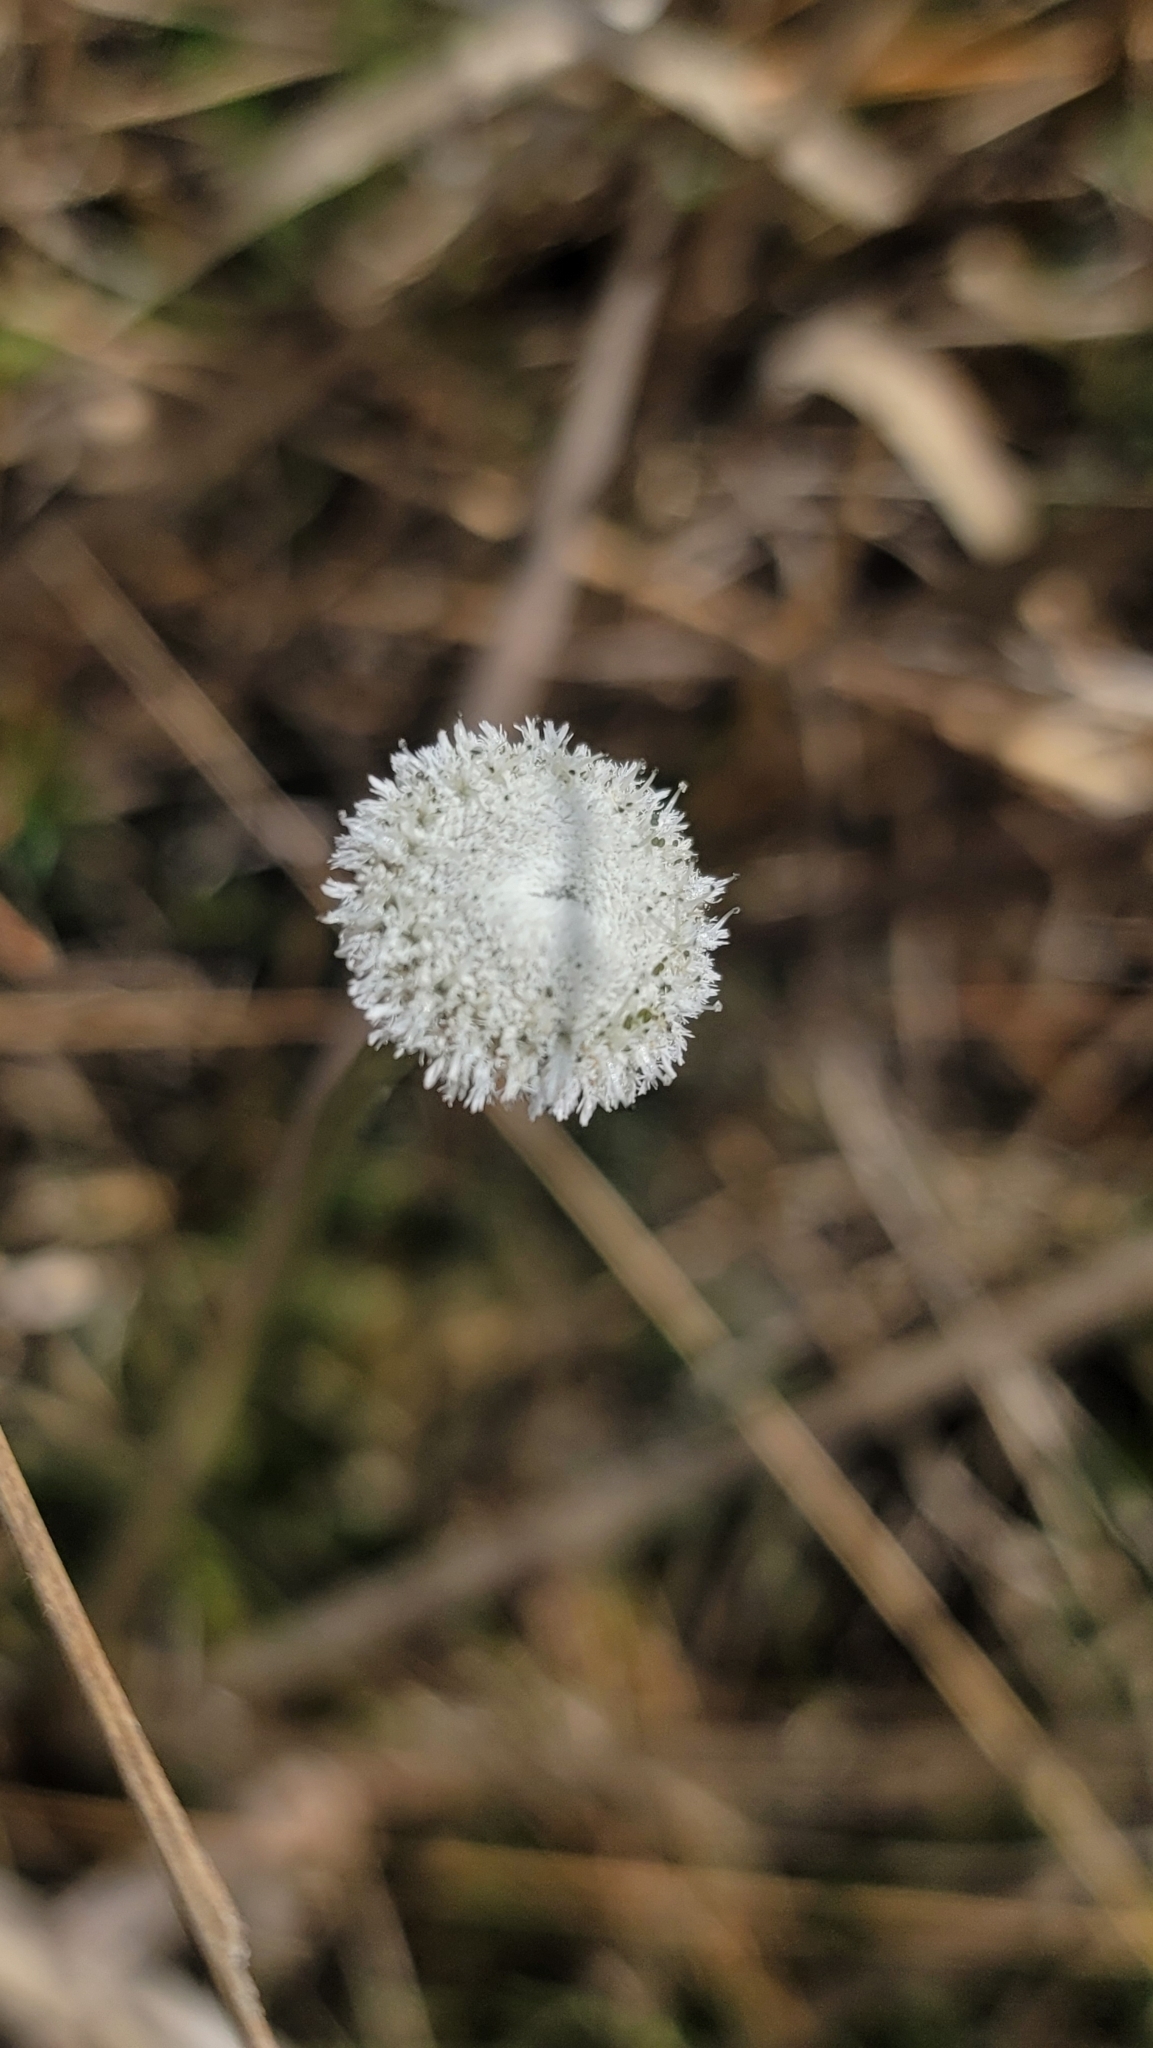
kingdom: Plantae
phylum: Tracheophyta
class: Liliopsida
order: Poales
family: Eriocaulaceae
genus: Eriocaulon
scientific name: Eriocaulon compressum
